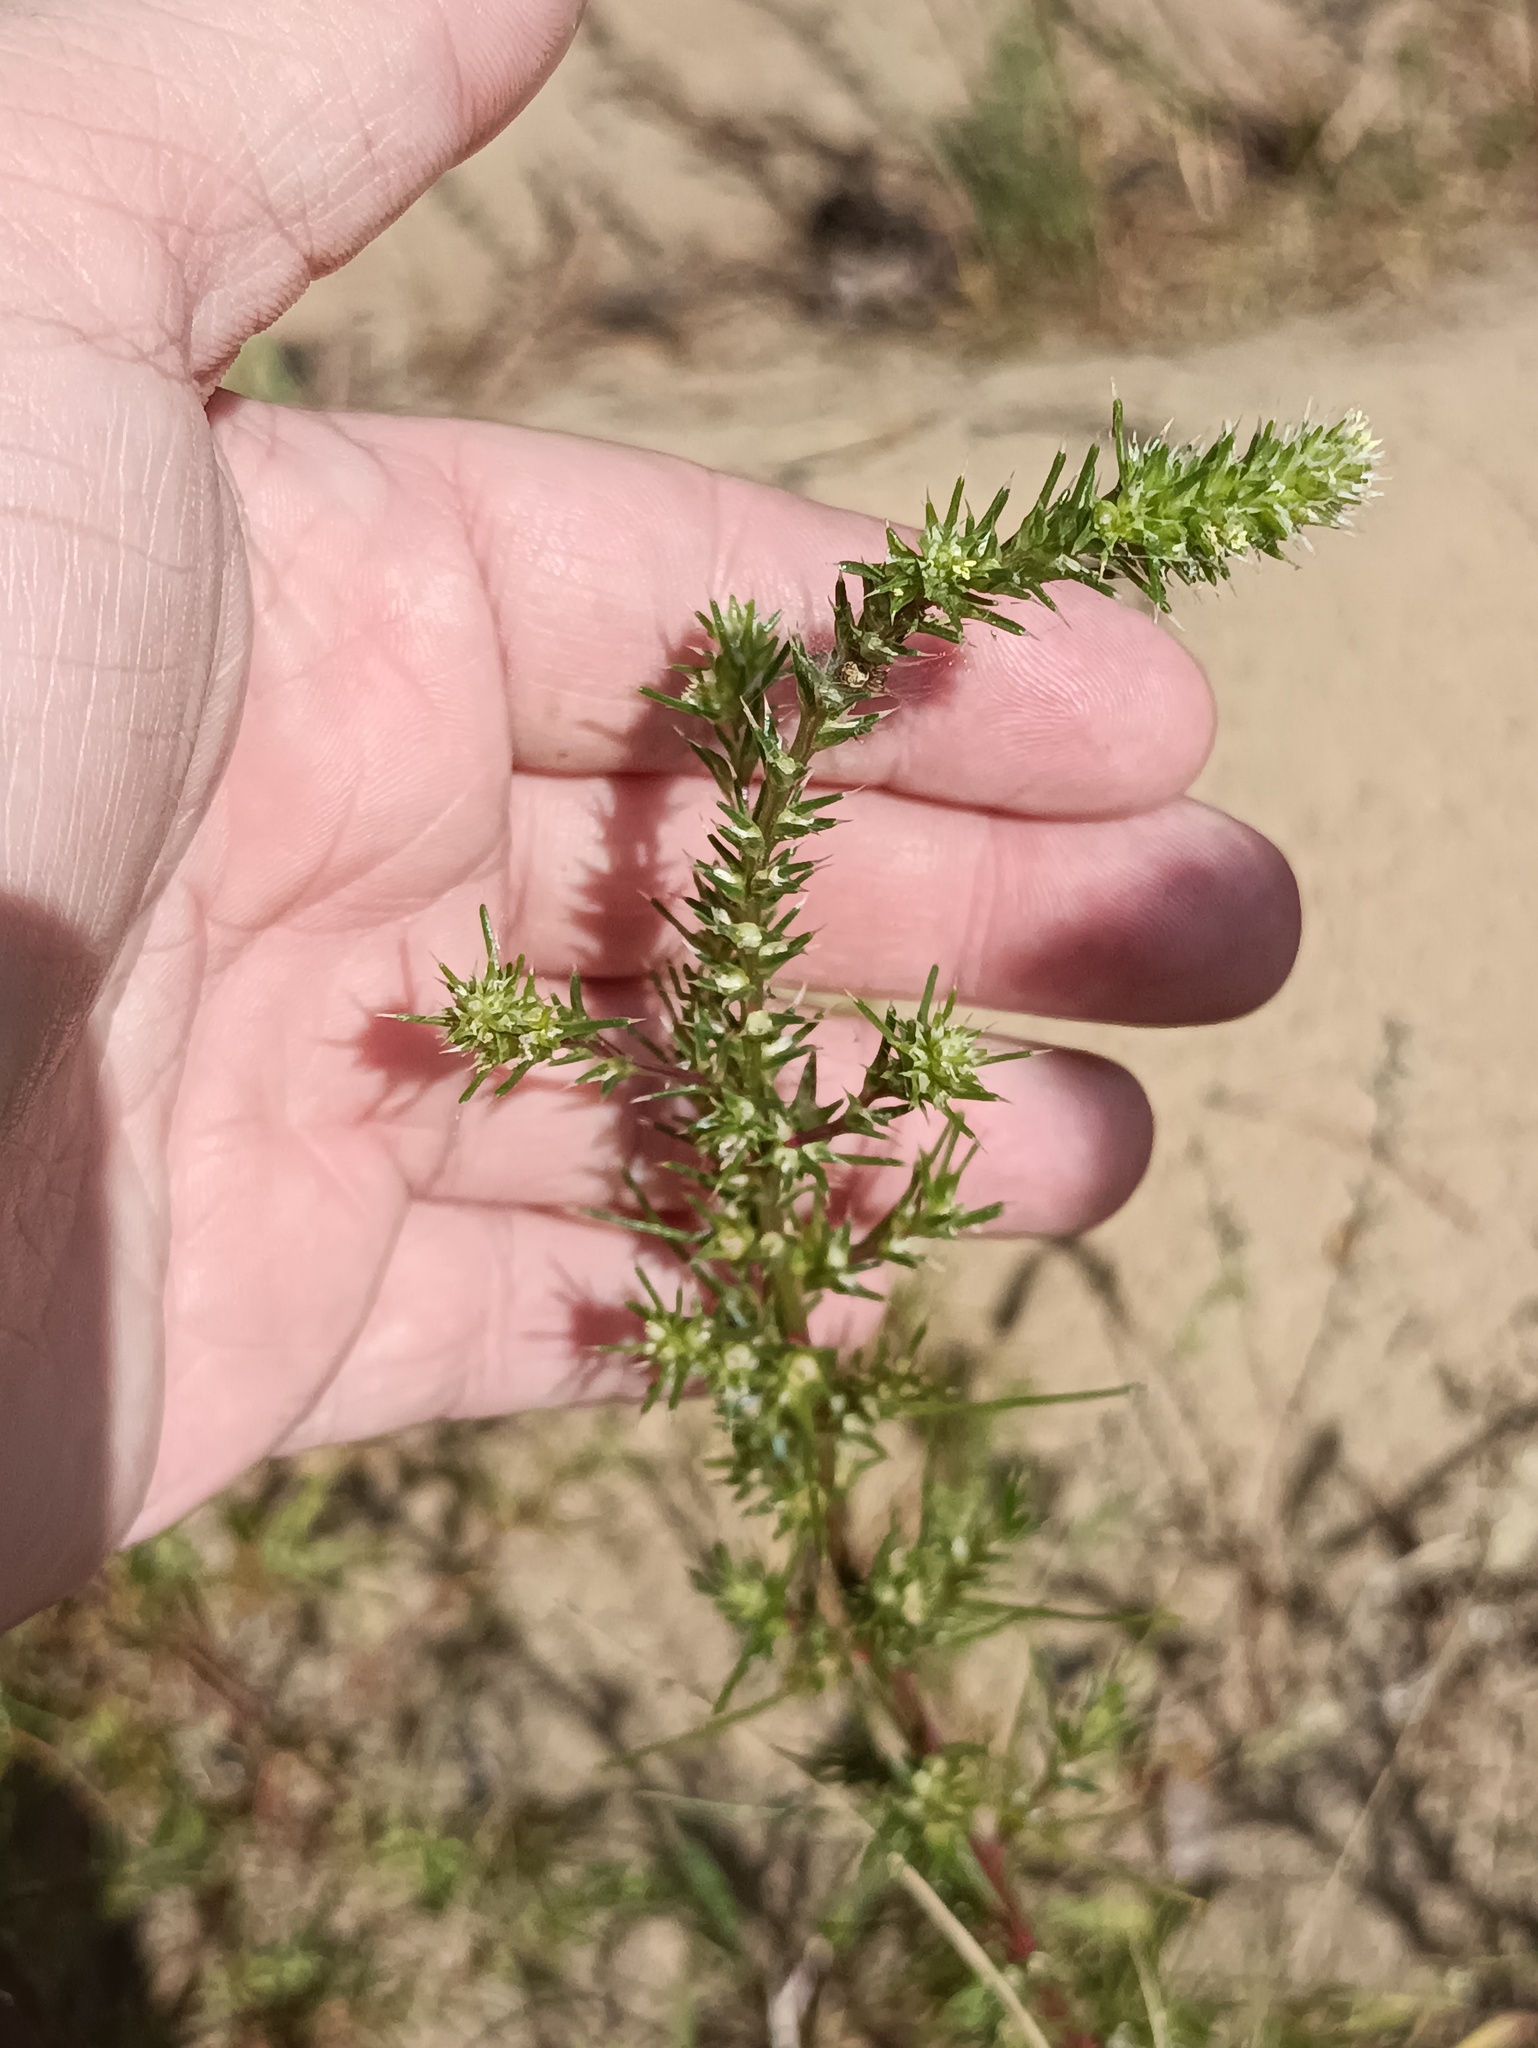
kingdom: Plantae
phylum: Tracheophyta
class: Magnoliopsida
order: Caryophyllales
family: Amaranthaceae
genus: Salsola
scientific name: Salsola collina
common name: Tumbleweed
